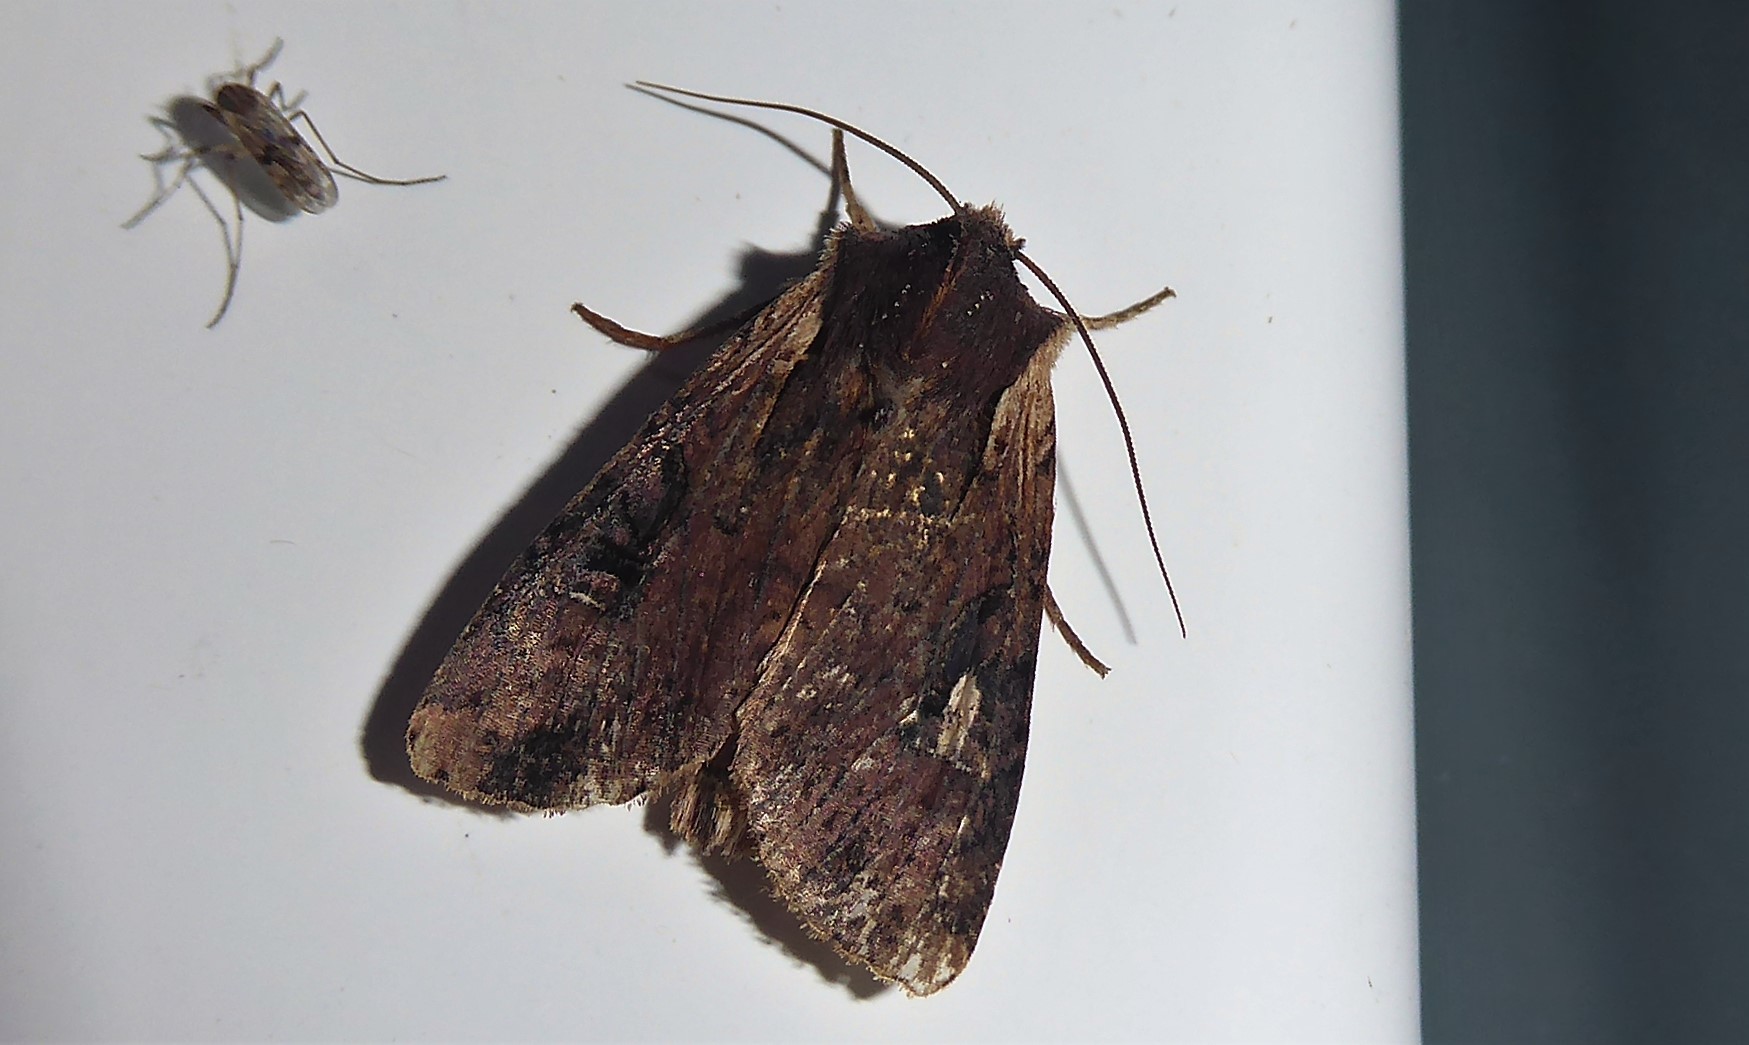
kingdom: Animalia
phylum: Arthropoda
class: Insecta
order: Lepidoptera
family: Noctuidae
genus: Ichneutica
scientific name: Ichneutica omoplaca
